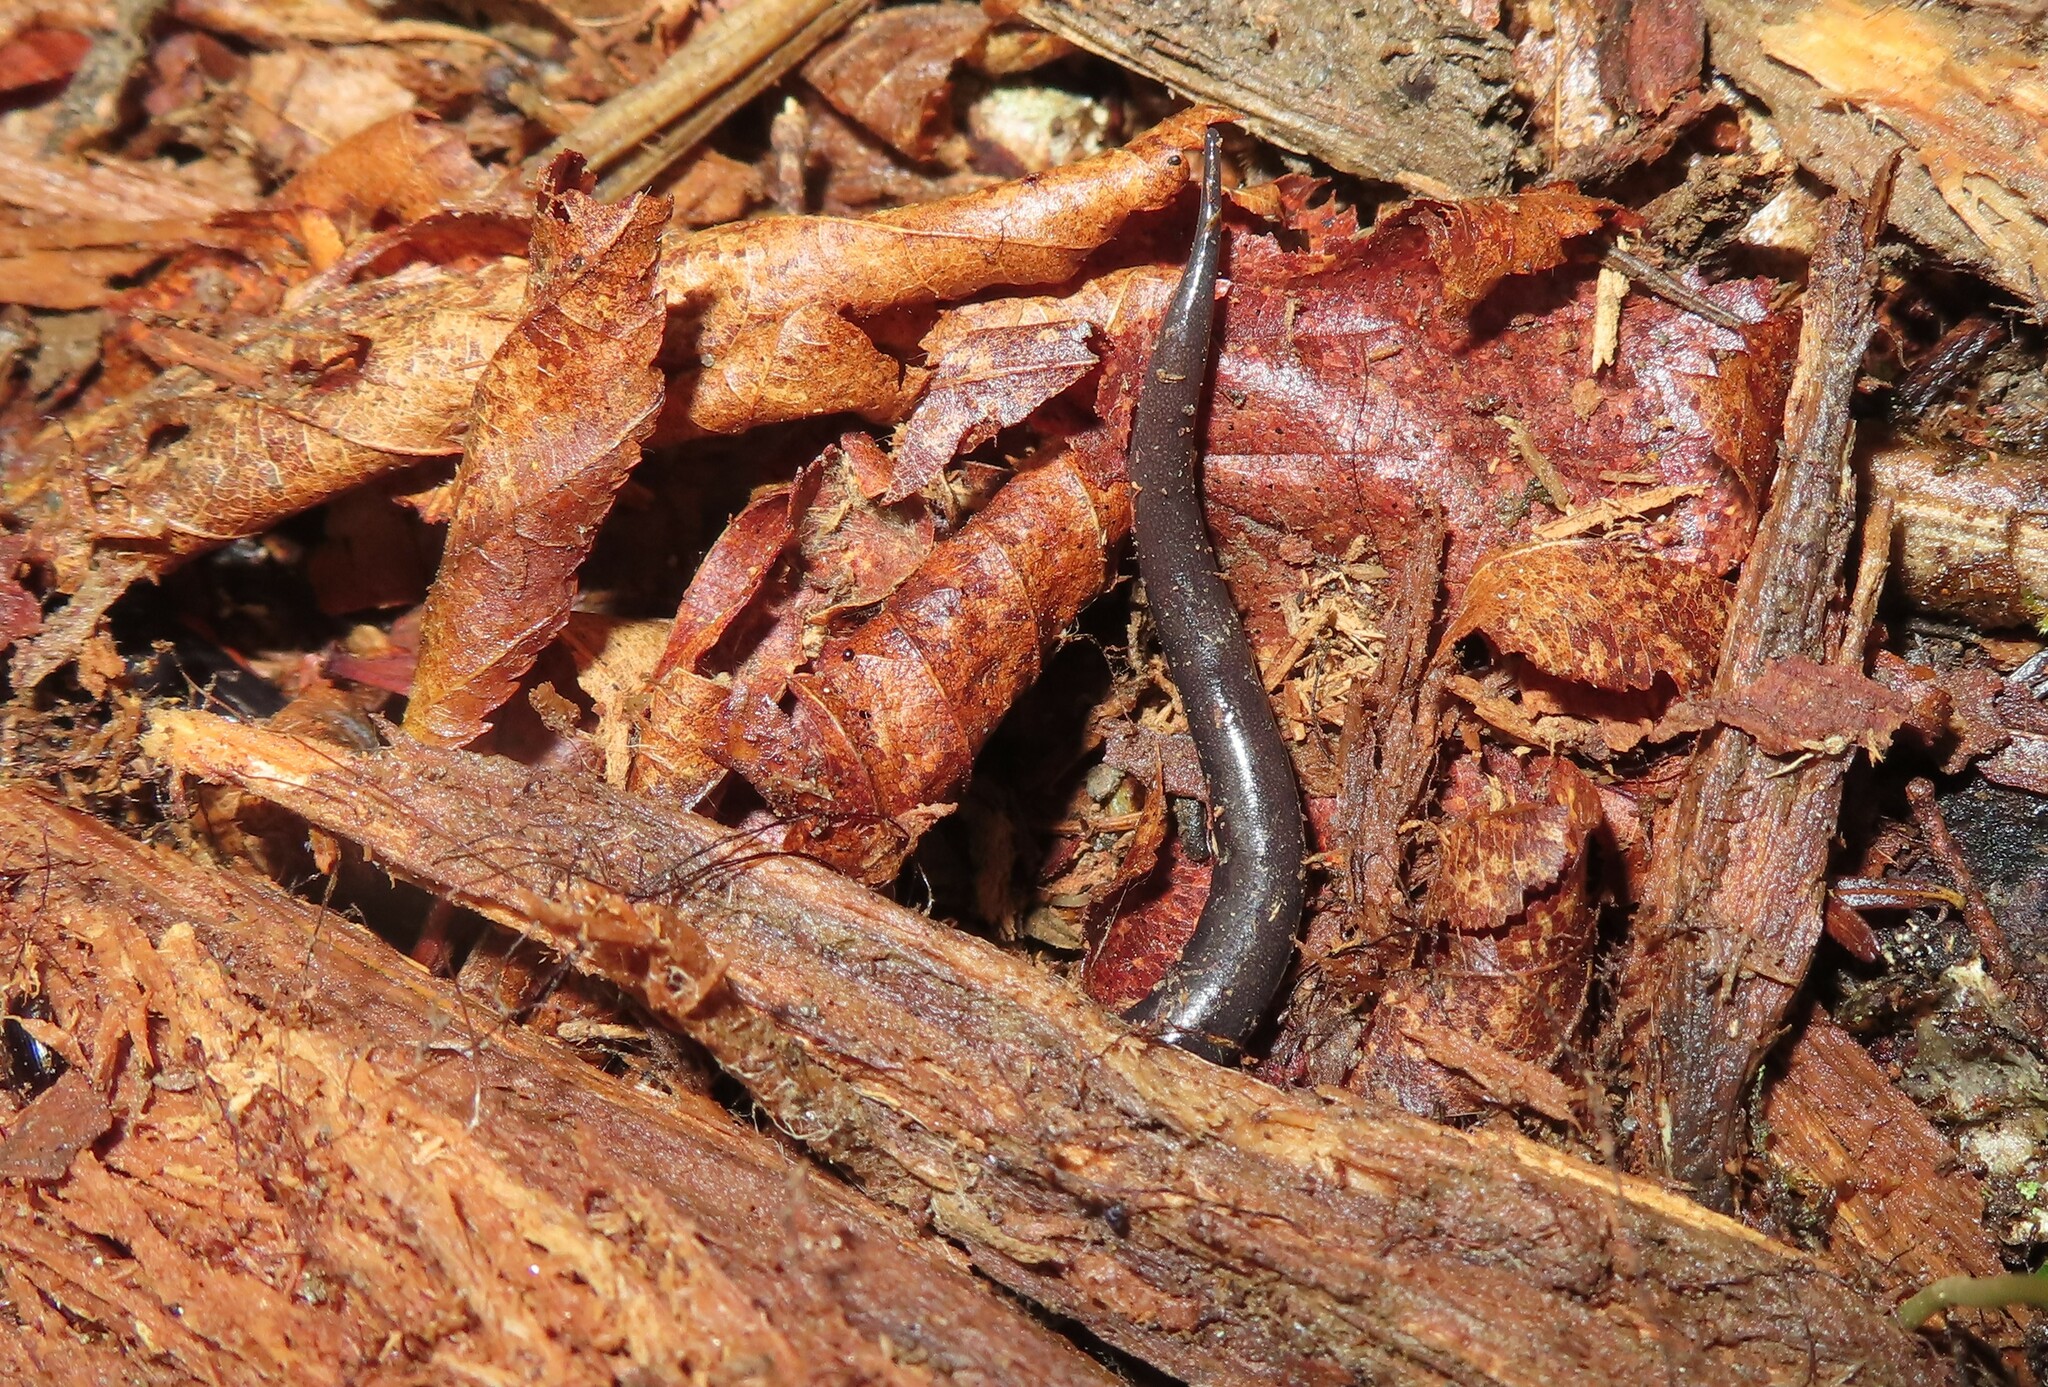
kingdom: Animalia
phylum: Chordata
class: Amphibia
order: Caudata
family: Plethodontidae
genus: Plethodon
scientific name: Plethodon jordani
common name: Red-cheeked salamander
